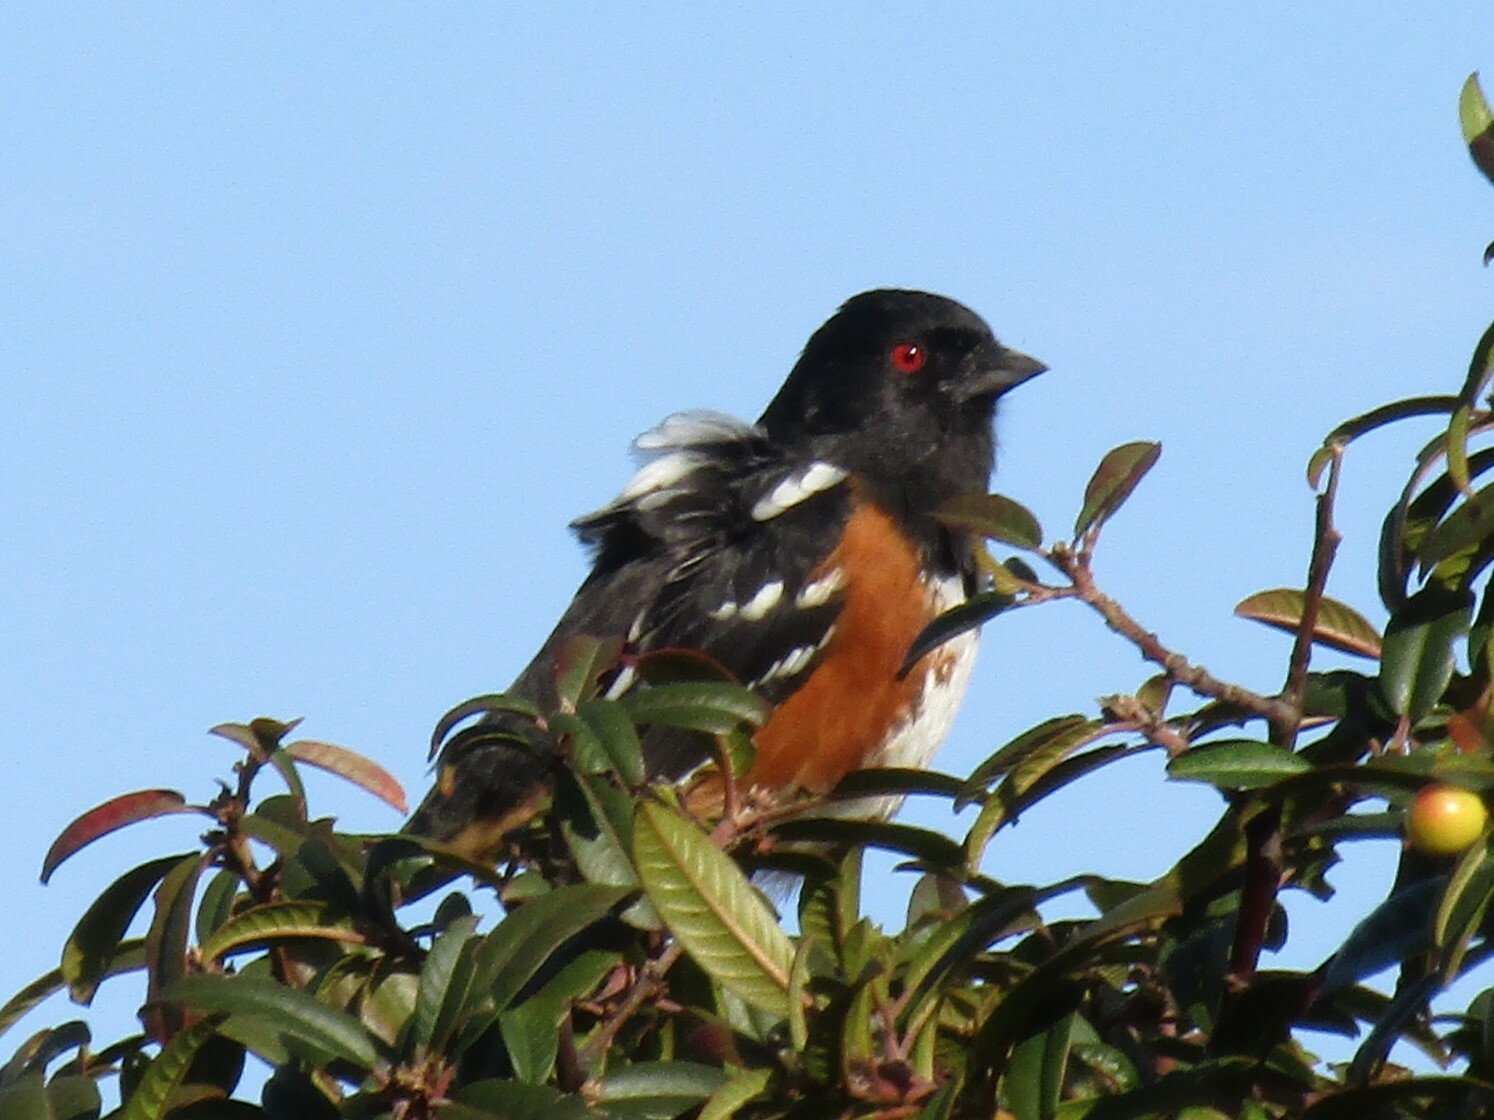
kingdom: Animalia
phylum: Chordata
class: Aves
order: Passeriformes
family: Passerellidae
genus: Pipilo
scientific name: Pipilo maculatus
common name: Spotted towhee
